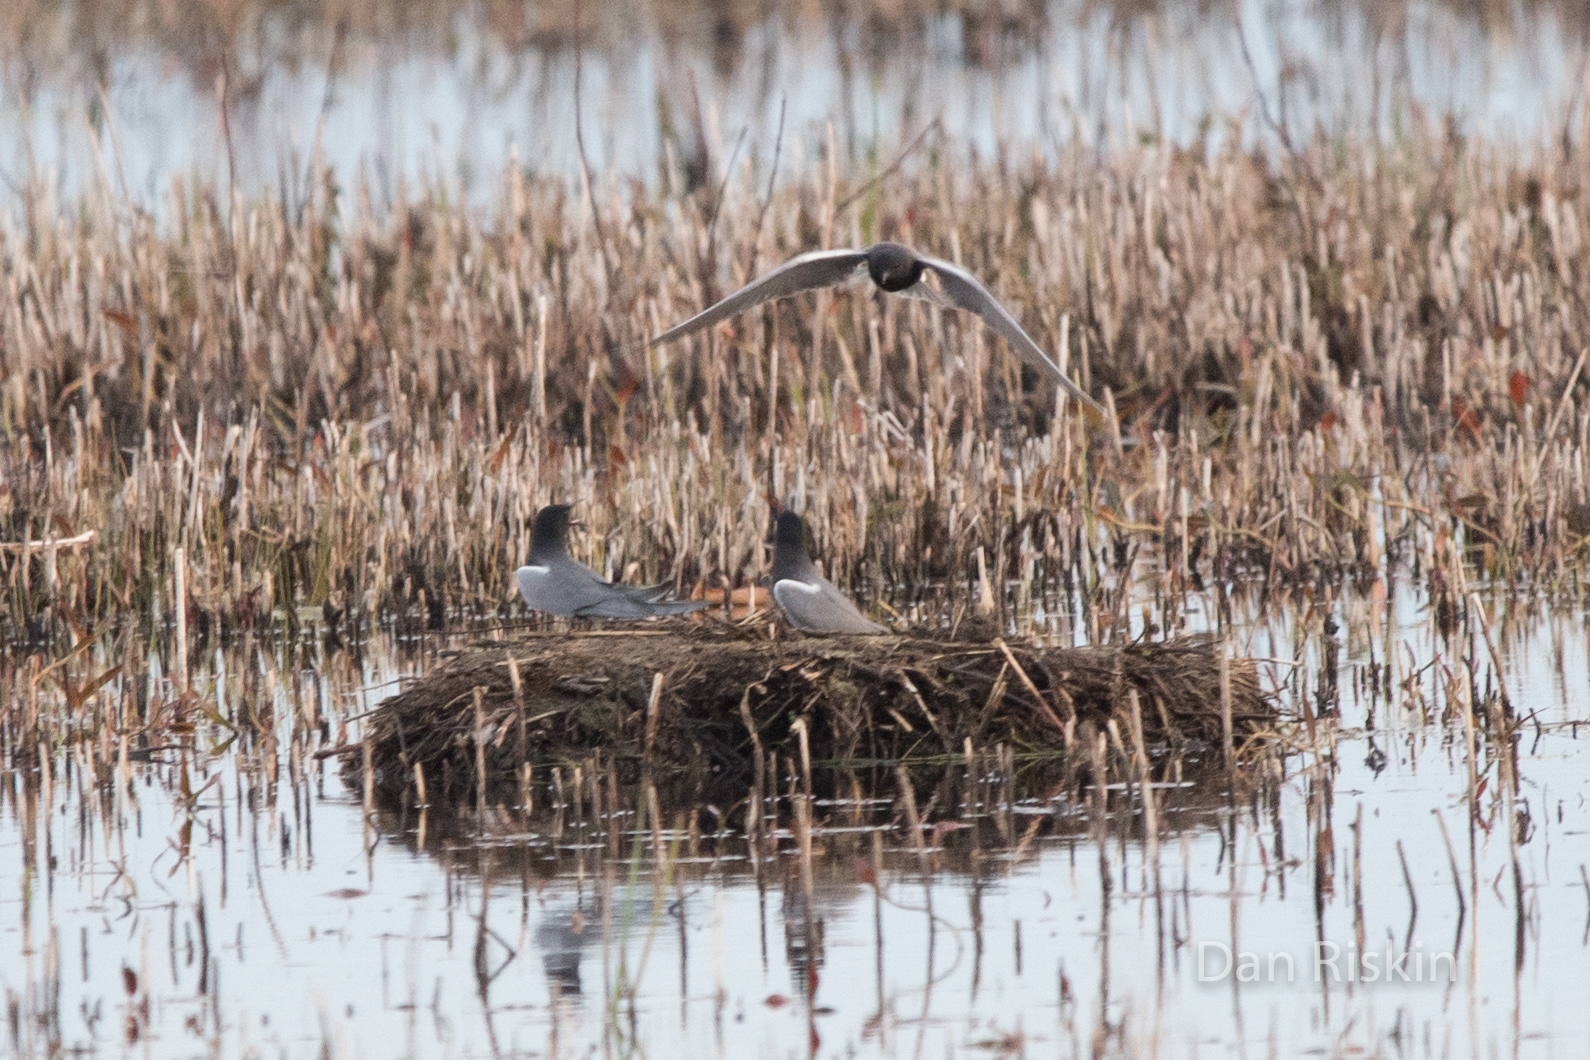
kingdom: Animalia
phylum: Chordata
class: Aves
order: Charadriiformes
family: Laridae
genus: Chlidonias
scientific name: Chlidonias niger
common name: Black tern
